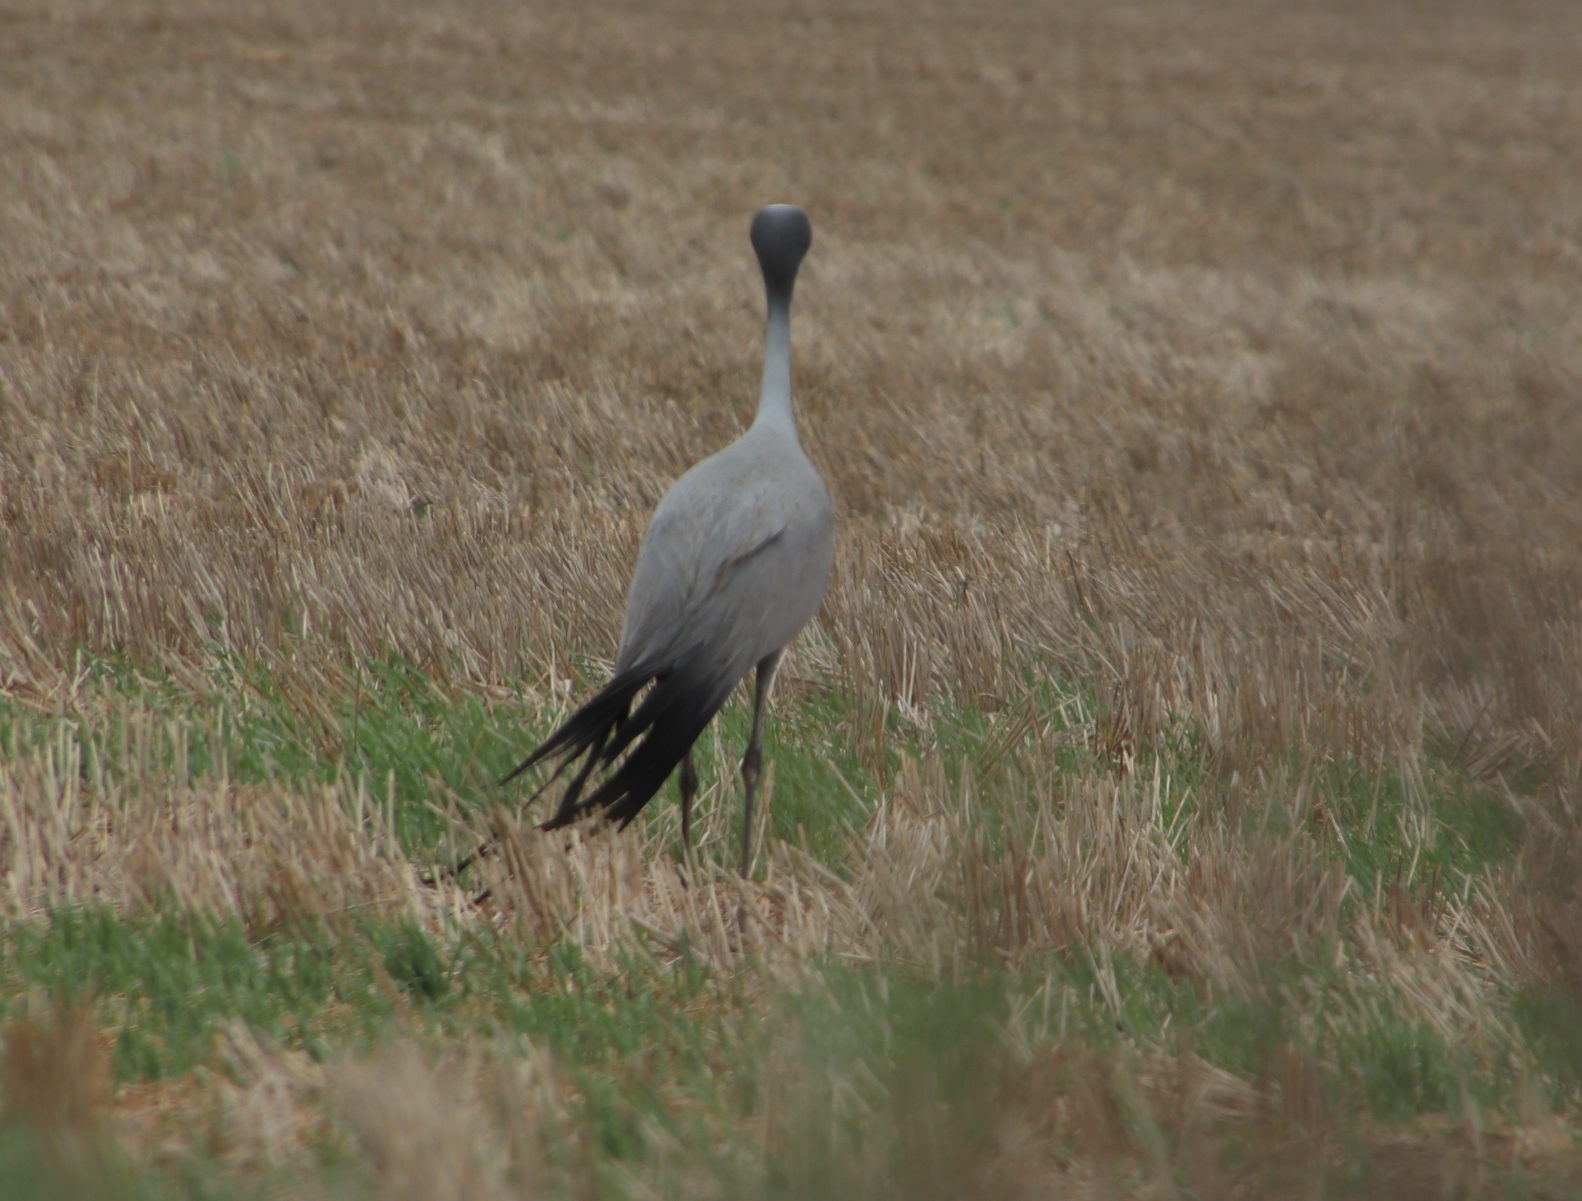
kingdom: Animalia
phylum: Chordata
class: Aves
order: Gruiformes
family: Gruidae
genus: Anthropoides
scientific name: Anthropoides paradiseus
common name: Blue crane
